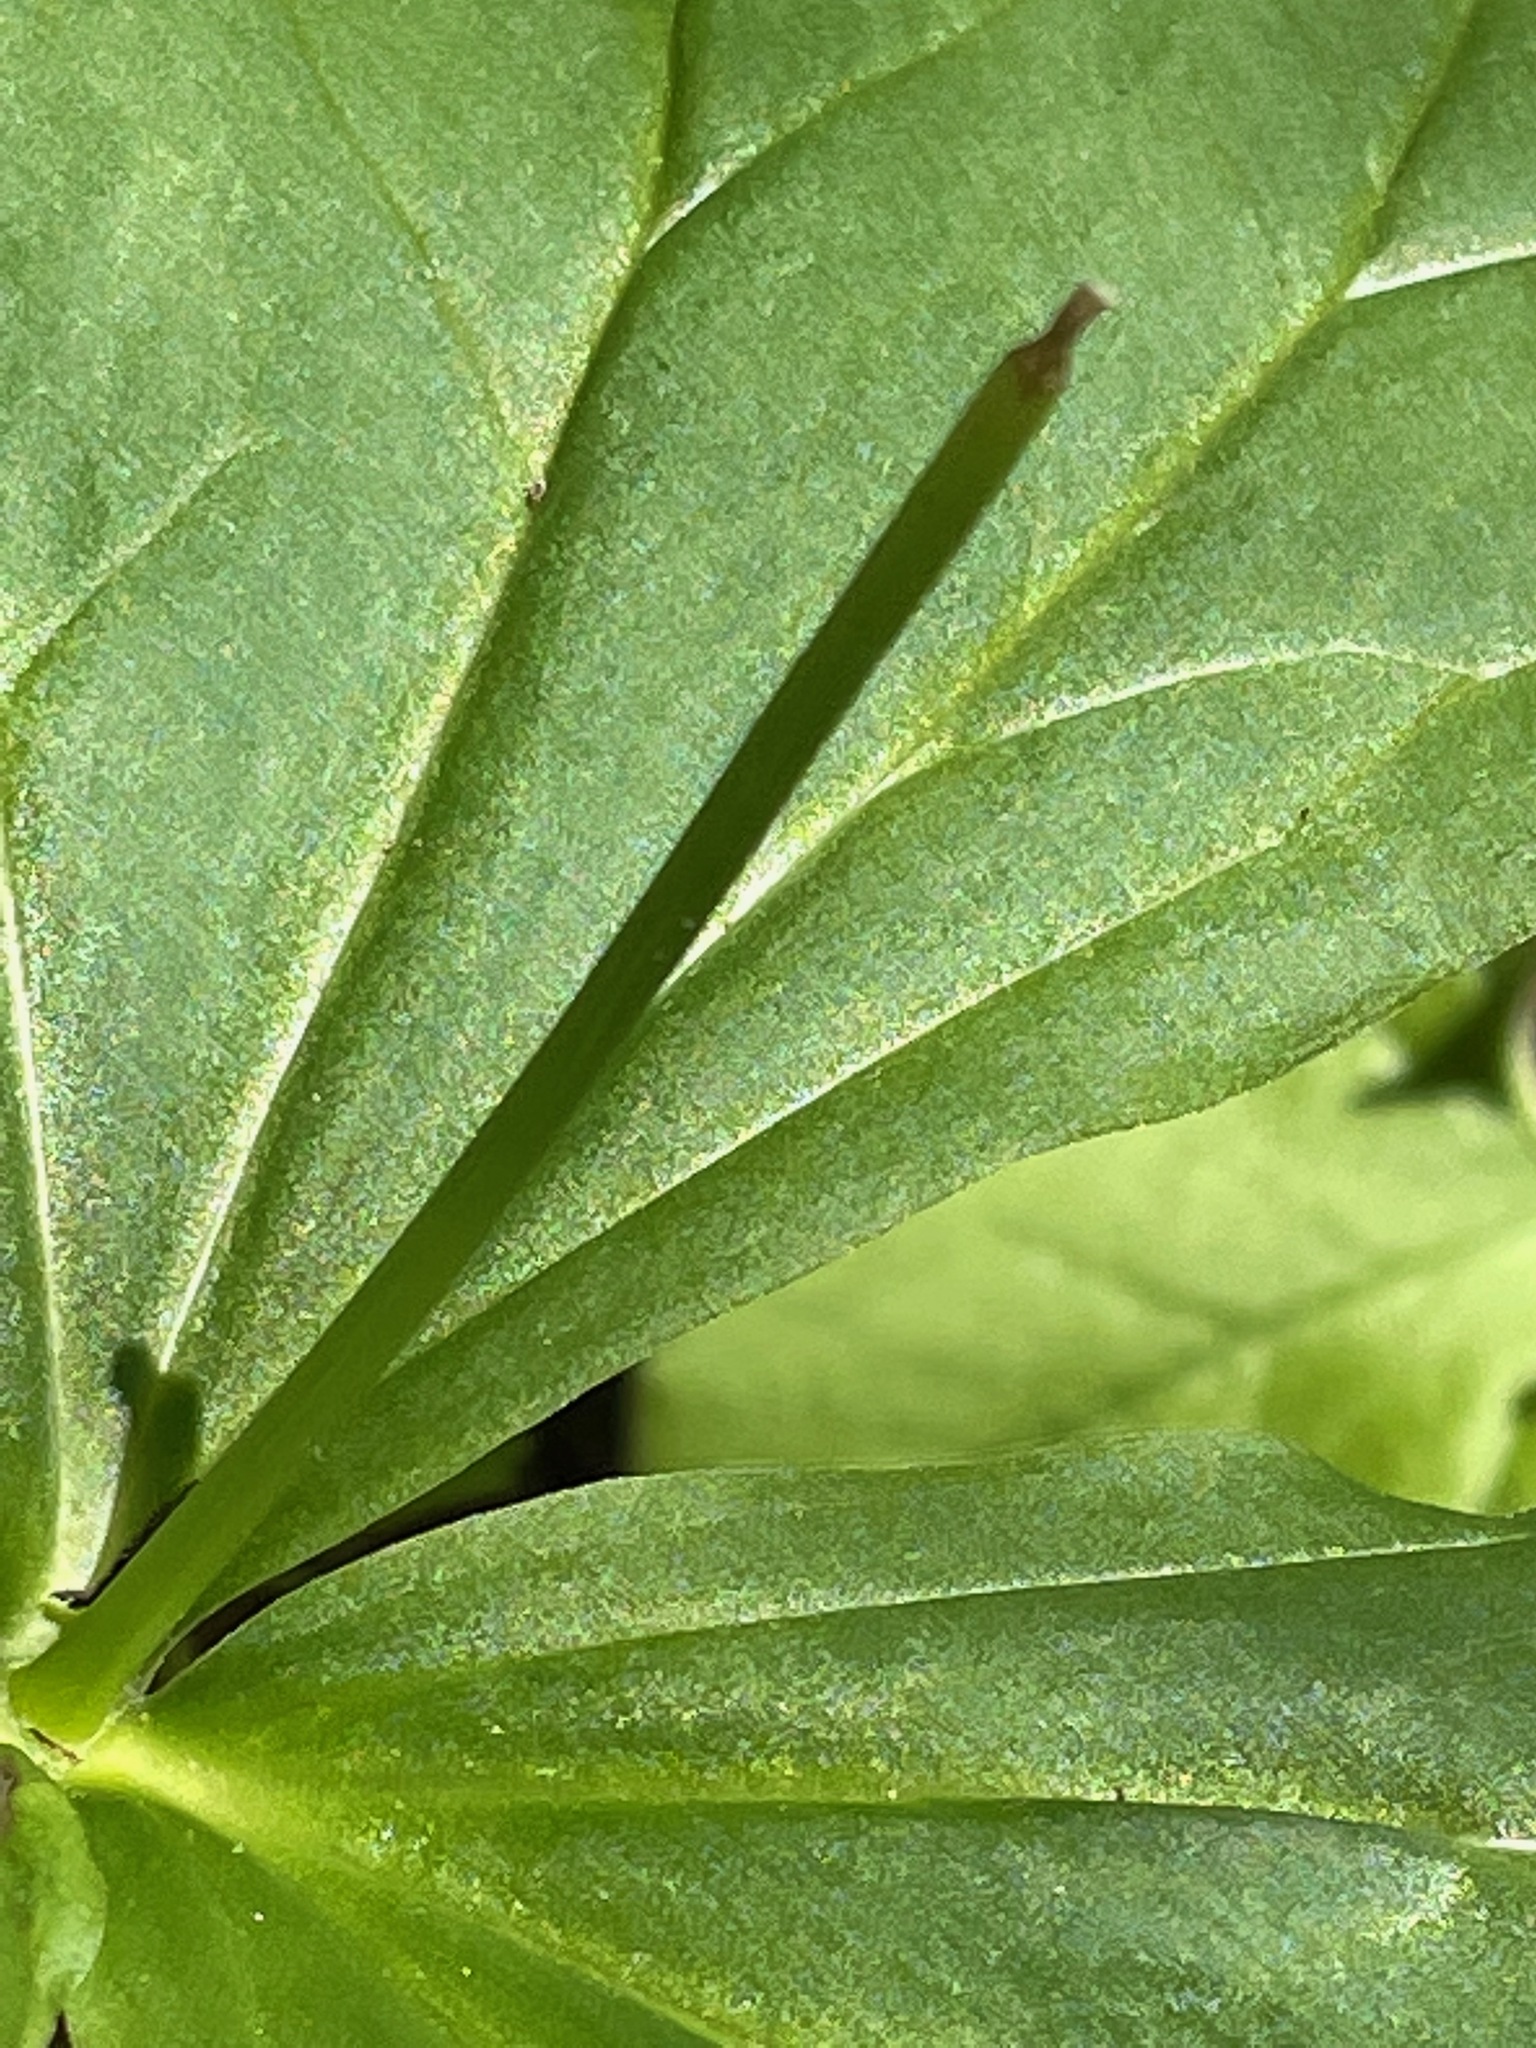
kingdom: Plantae
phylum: Tracheophyta
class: Liliopsida
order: Liliales
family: Melanthiaceae
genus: Trillium
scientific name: Trillium erectum
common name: Purple trillium
